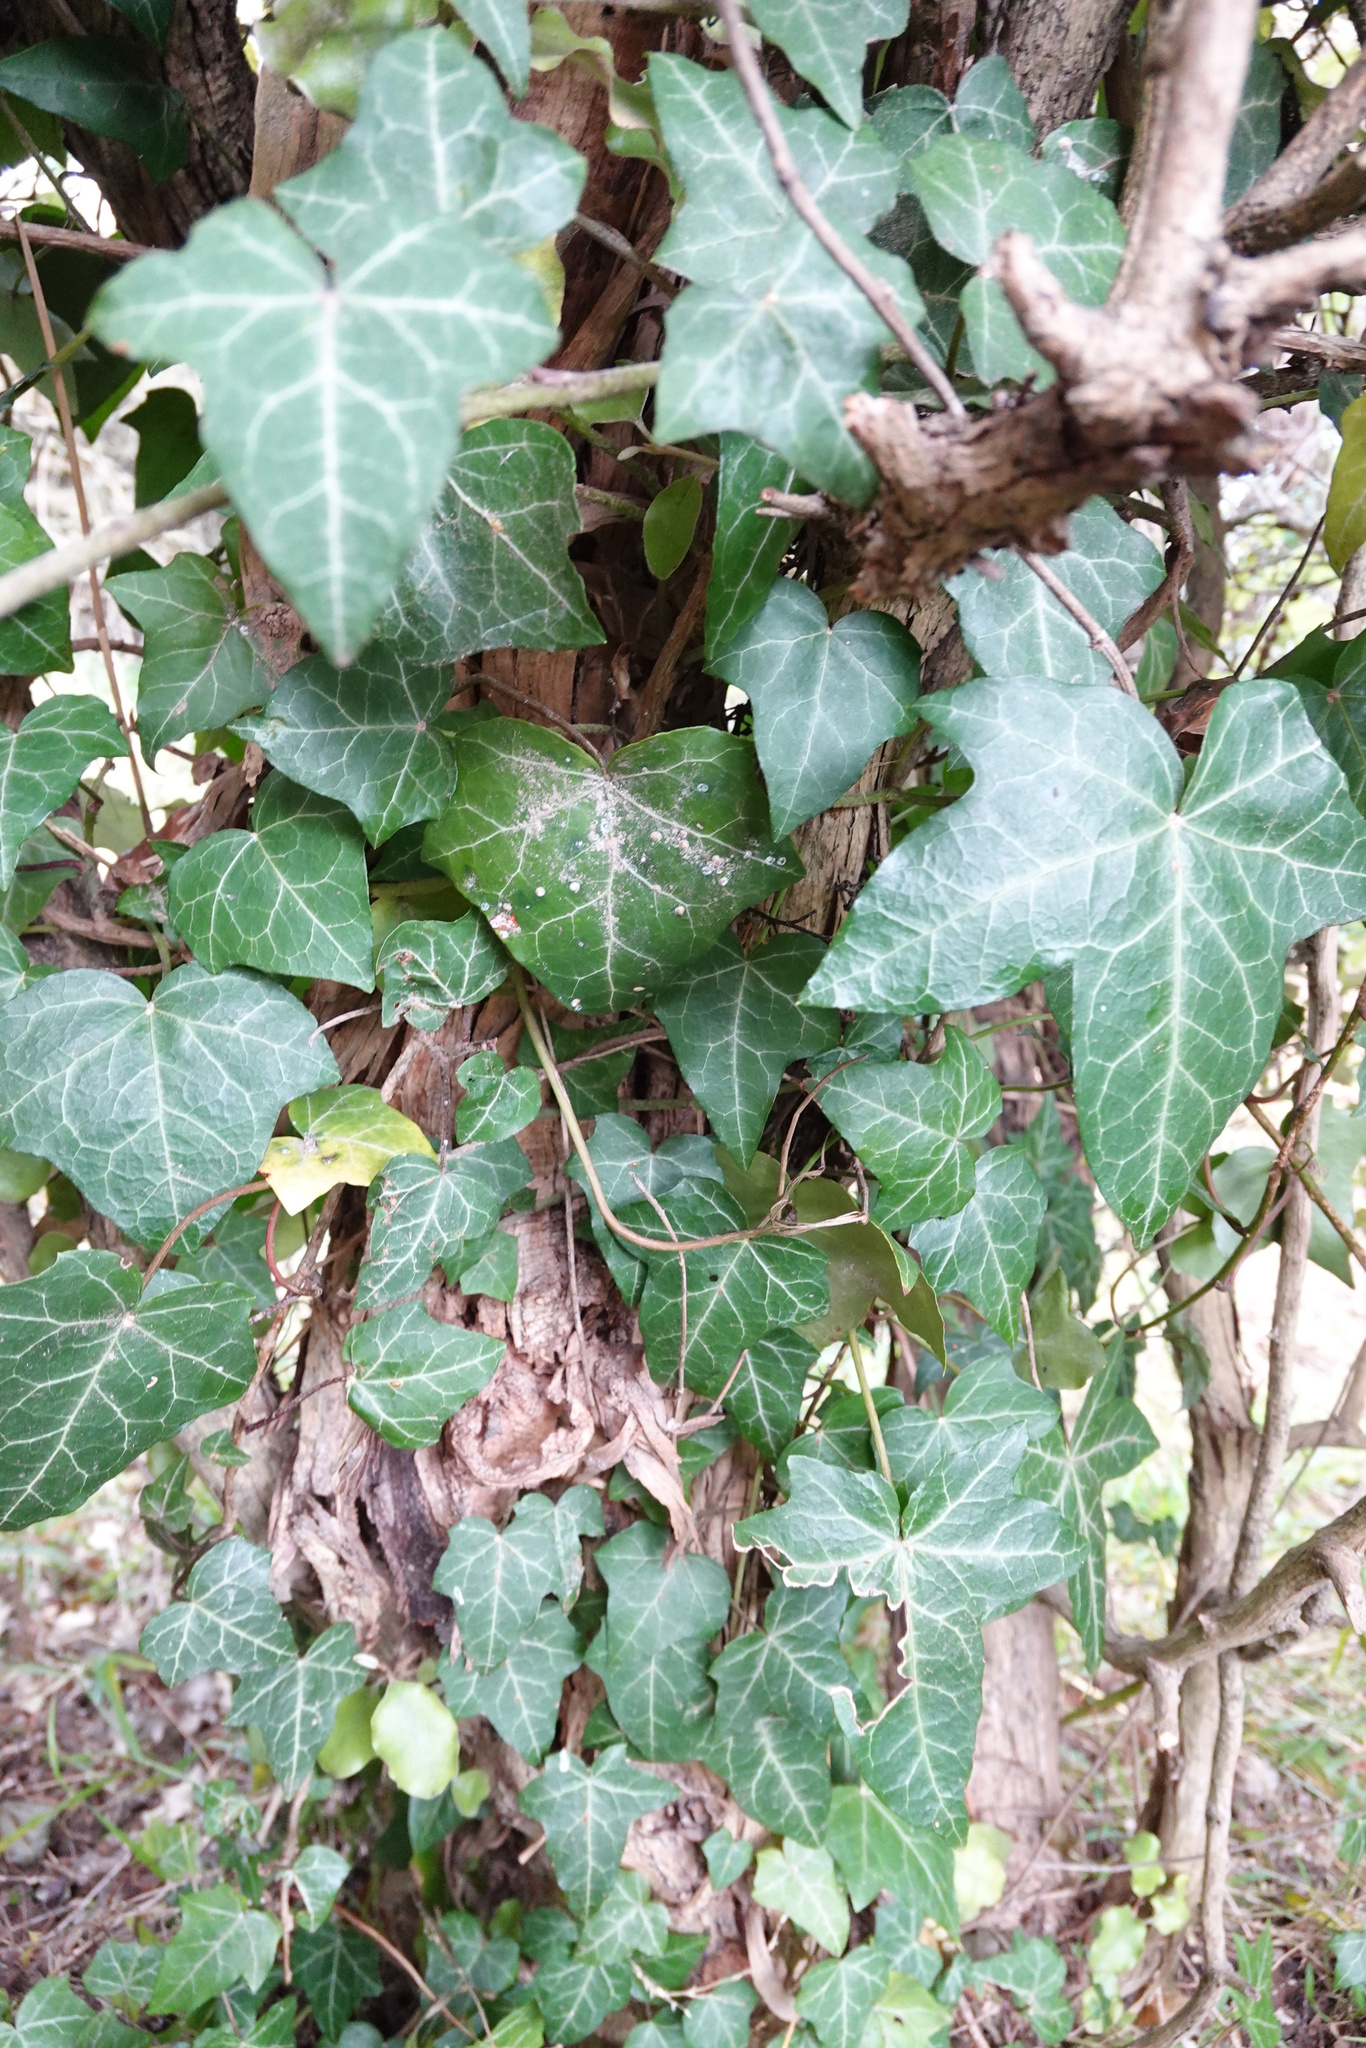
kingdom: Plantae
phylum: Tracheophyta
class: Magnoliopsida
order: Apiales
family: Araliaceae
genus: Hedera
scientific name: Hedera helix
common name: Ivy
